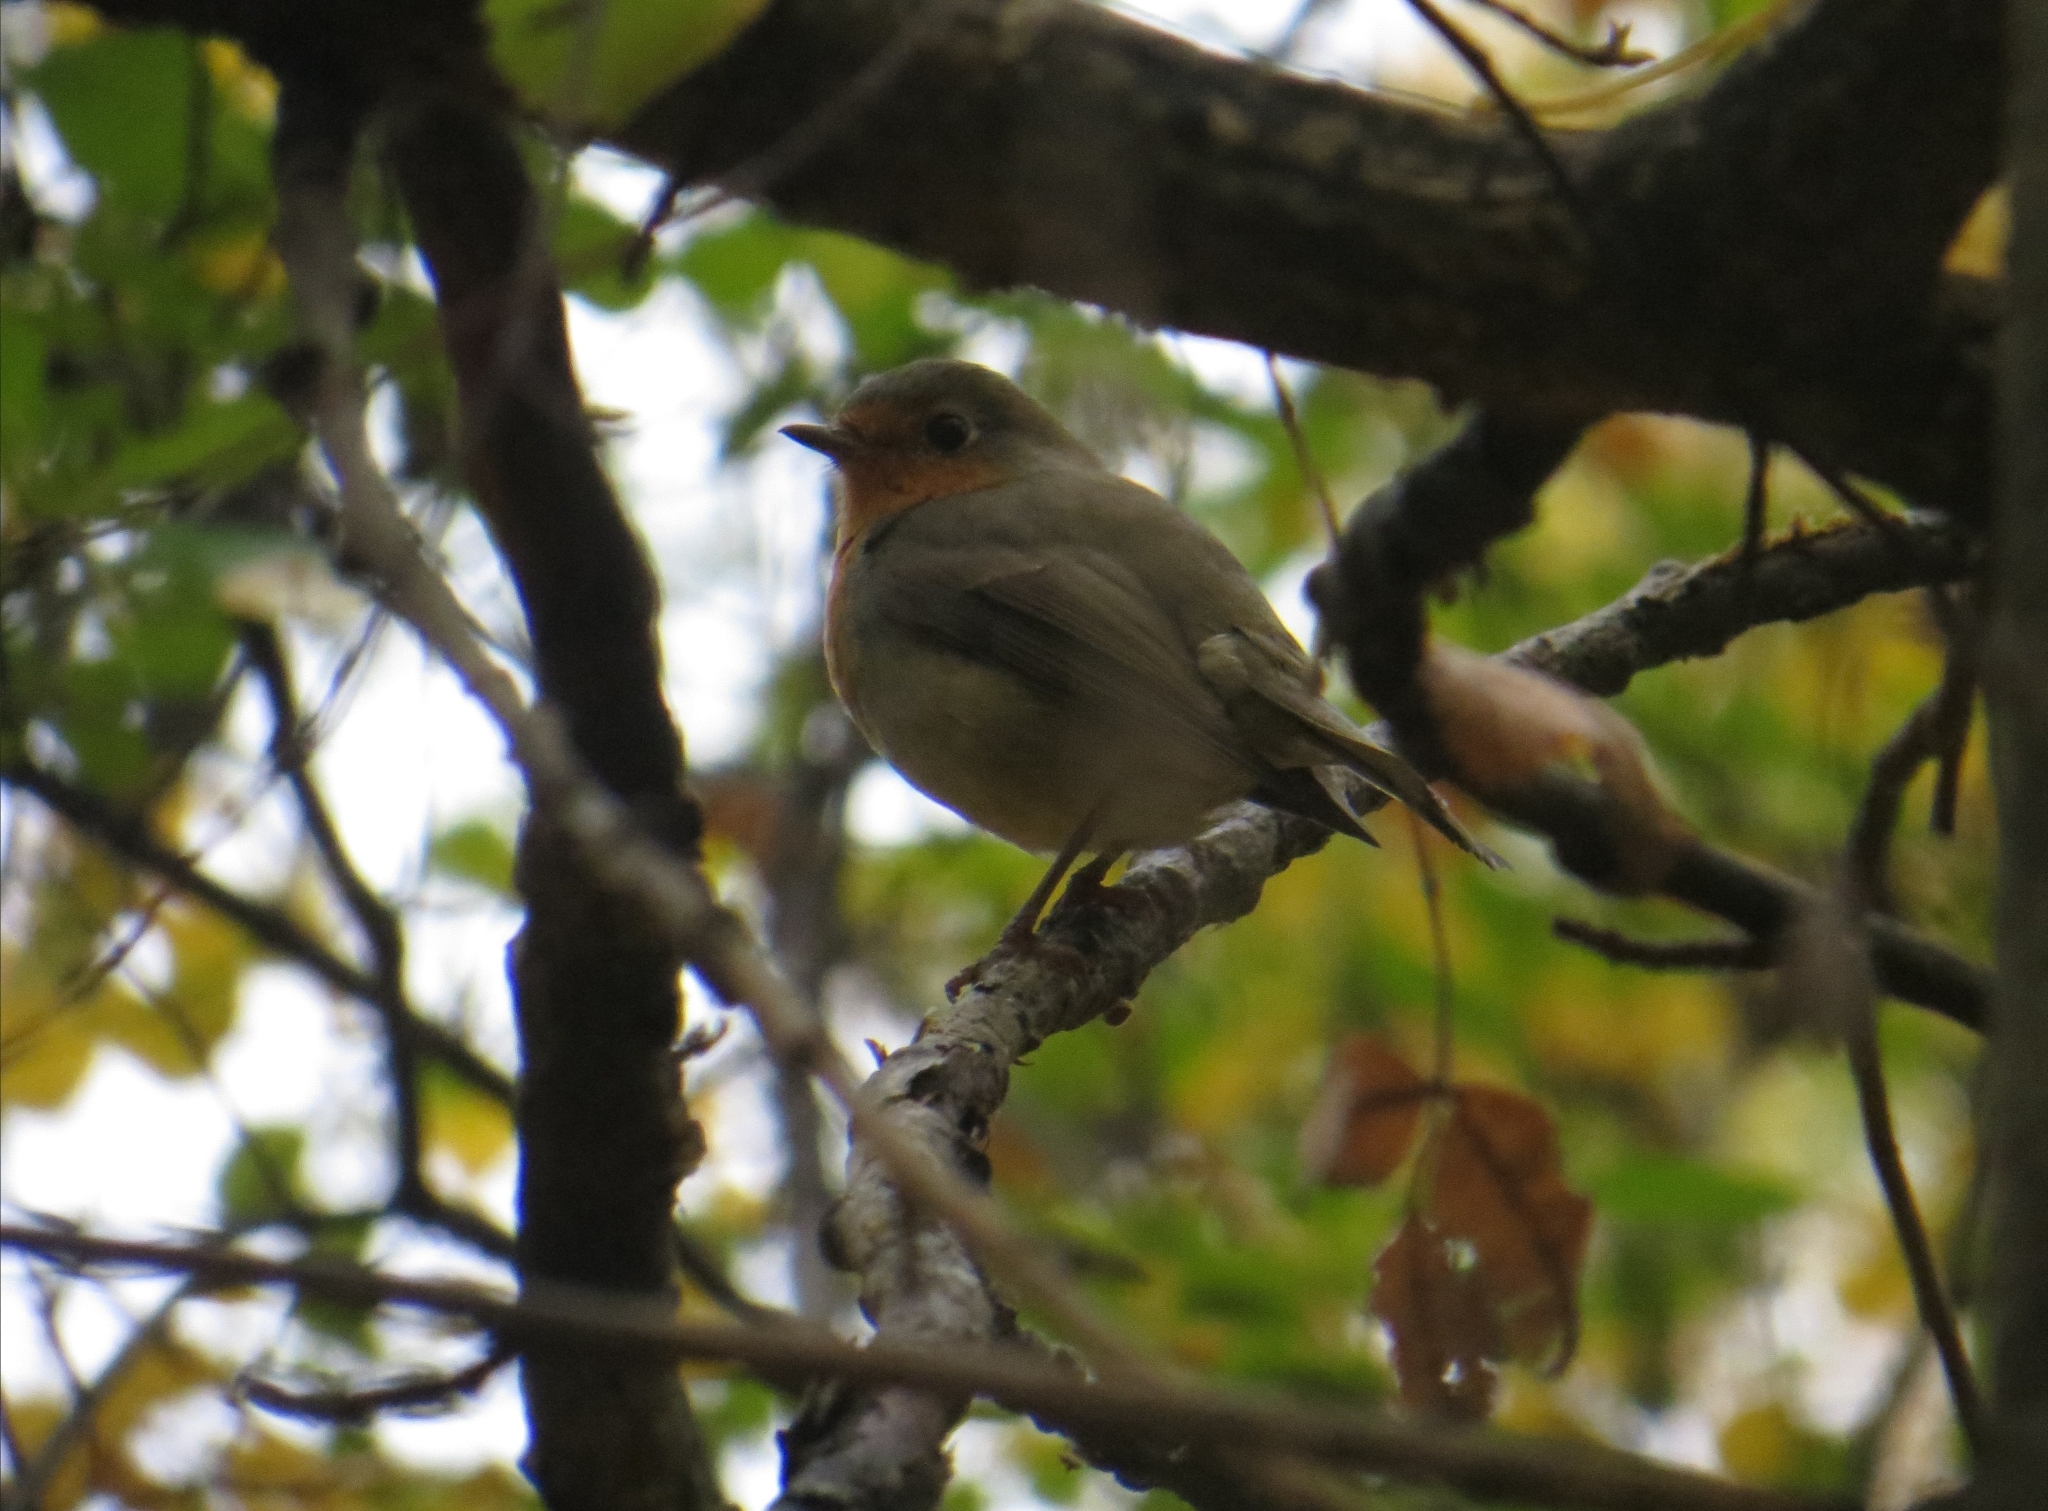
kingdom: Animalia
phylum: Chordata
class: Aves
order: Passeriformes
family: Muscicapidae
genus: Erithacus
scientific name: Erithacus rubecula
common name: European robin
